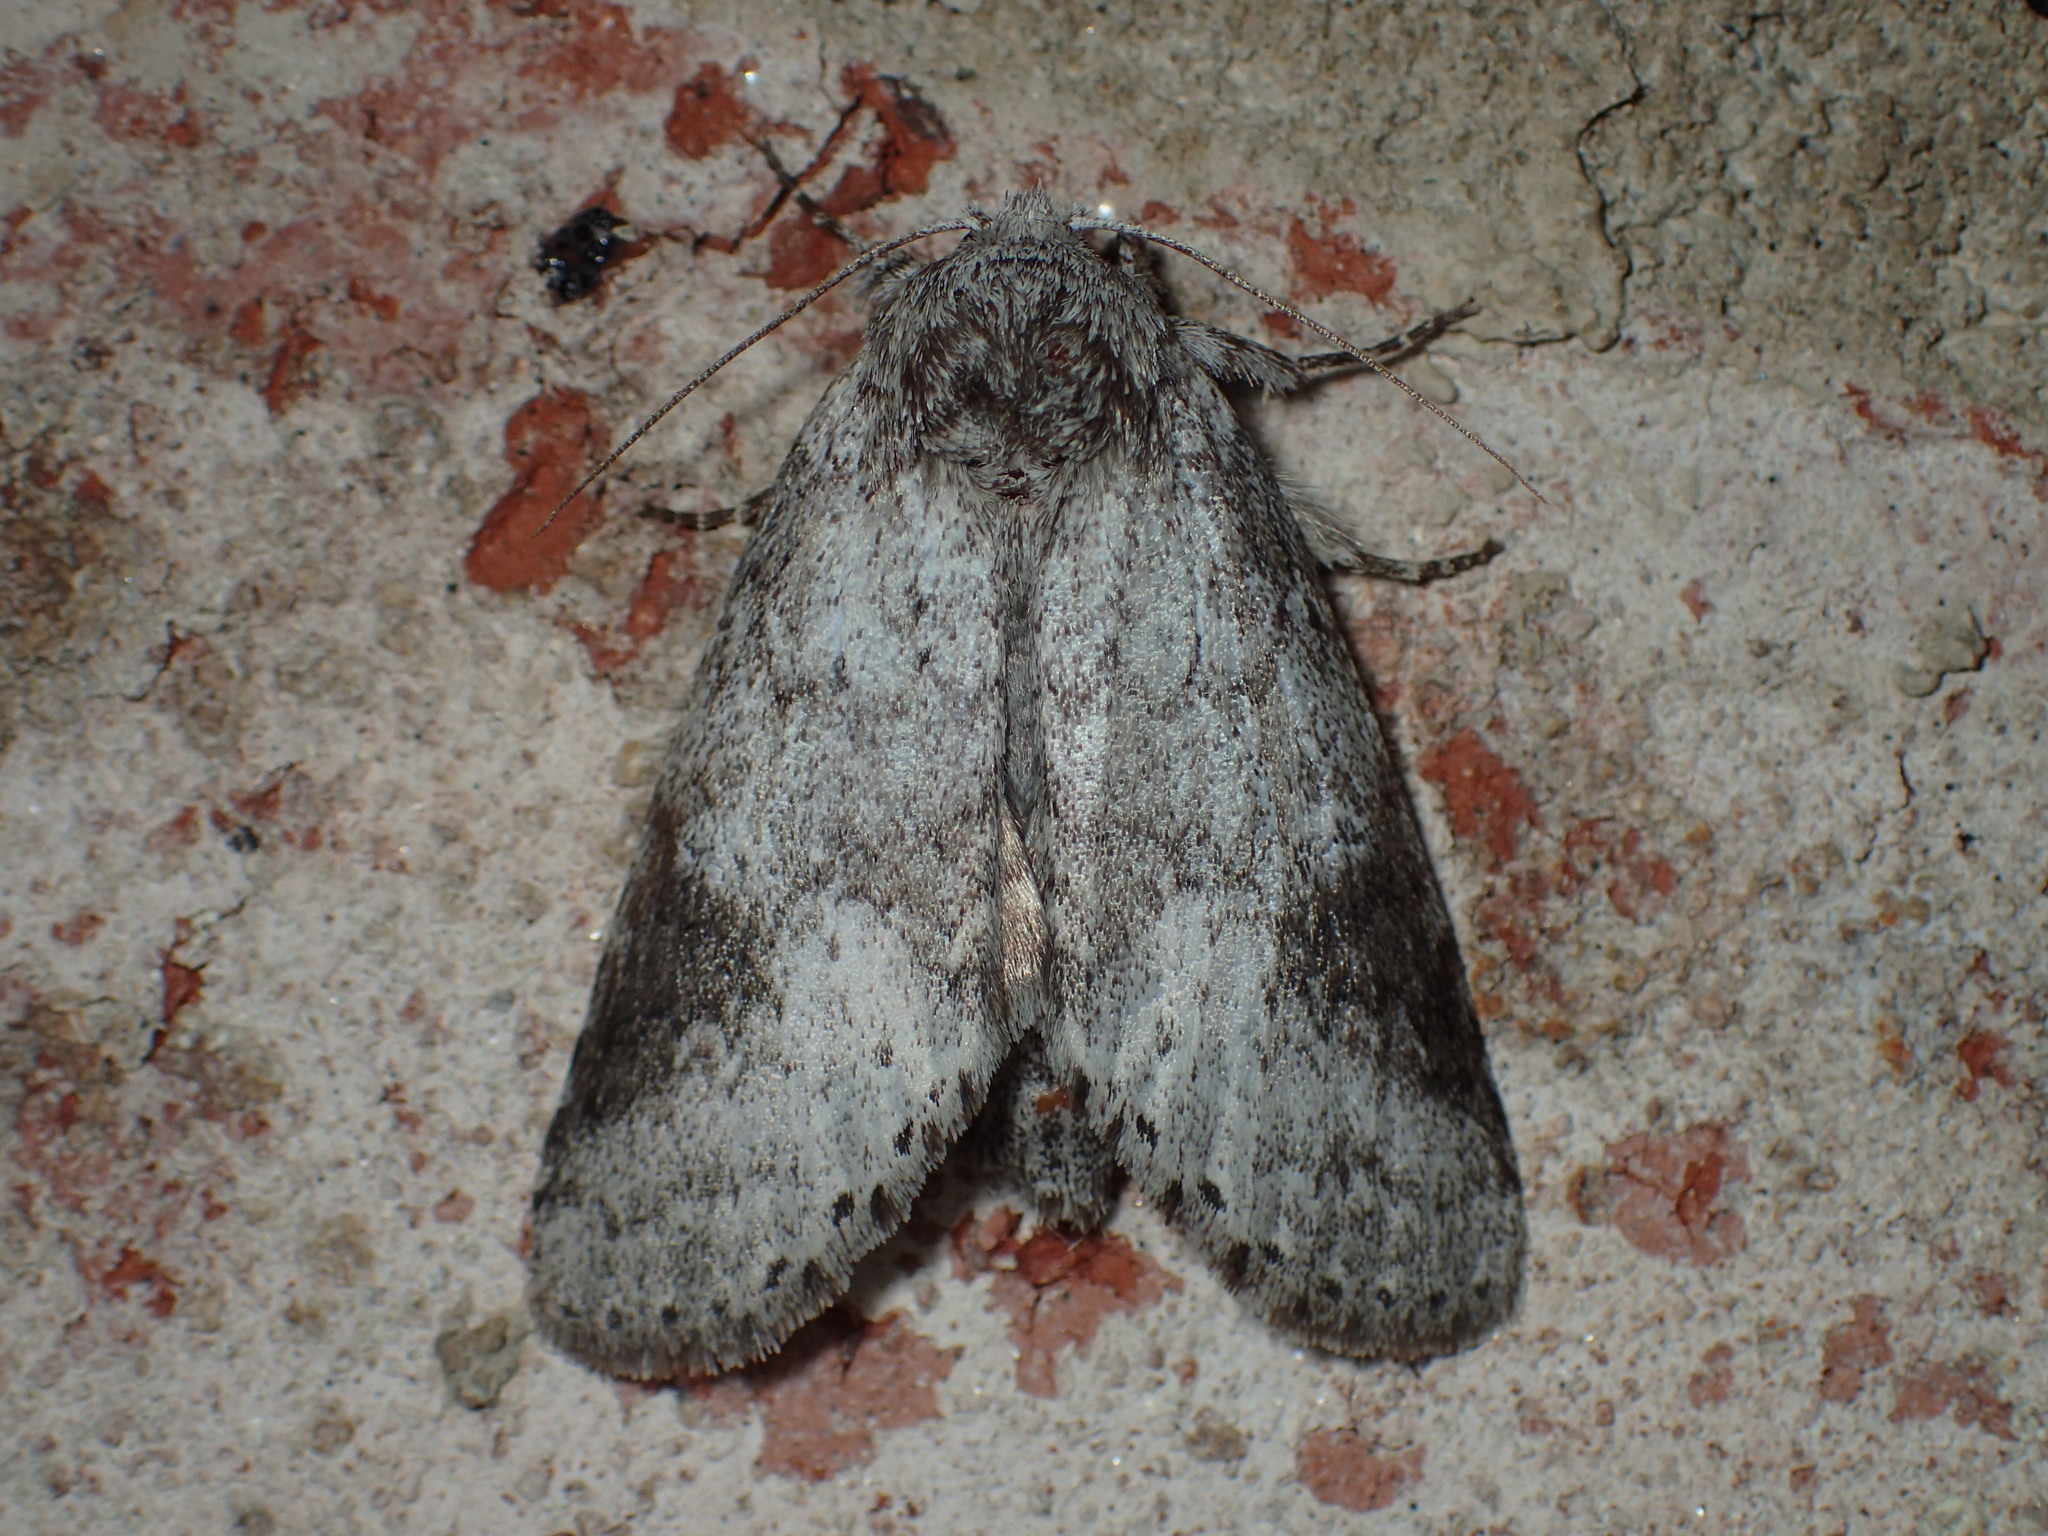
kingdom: Animalia
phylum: Arthropoda
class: Insecta
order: Lepidoptera
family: Notodontidae
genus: Lochmaeus
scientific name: Lochmaeus bilineata
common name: Double-lined prominent
